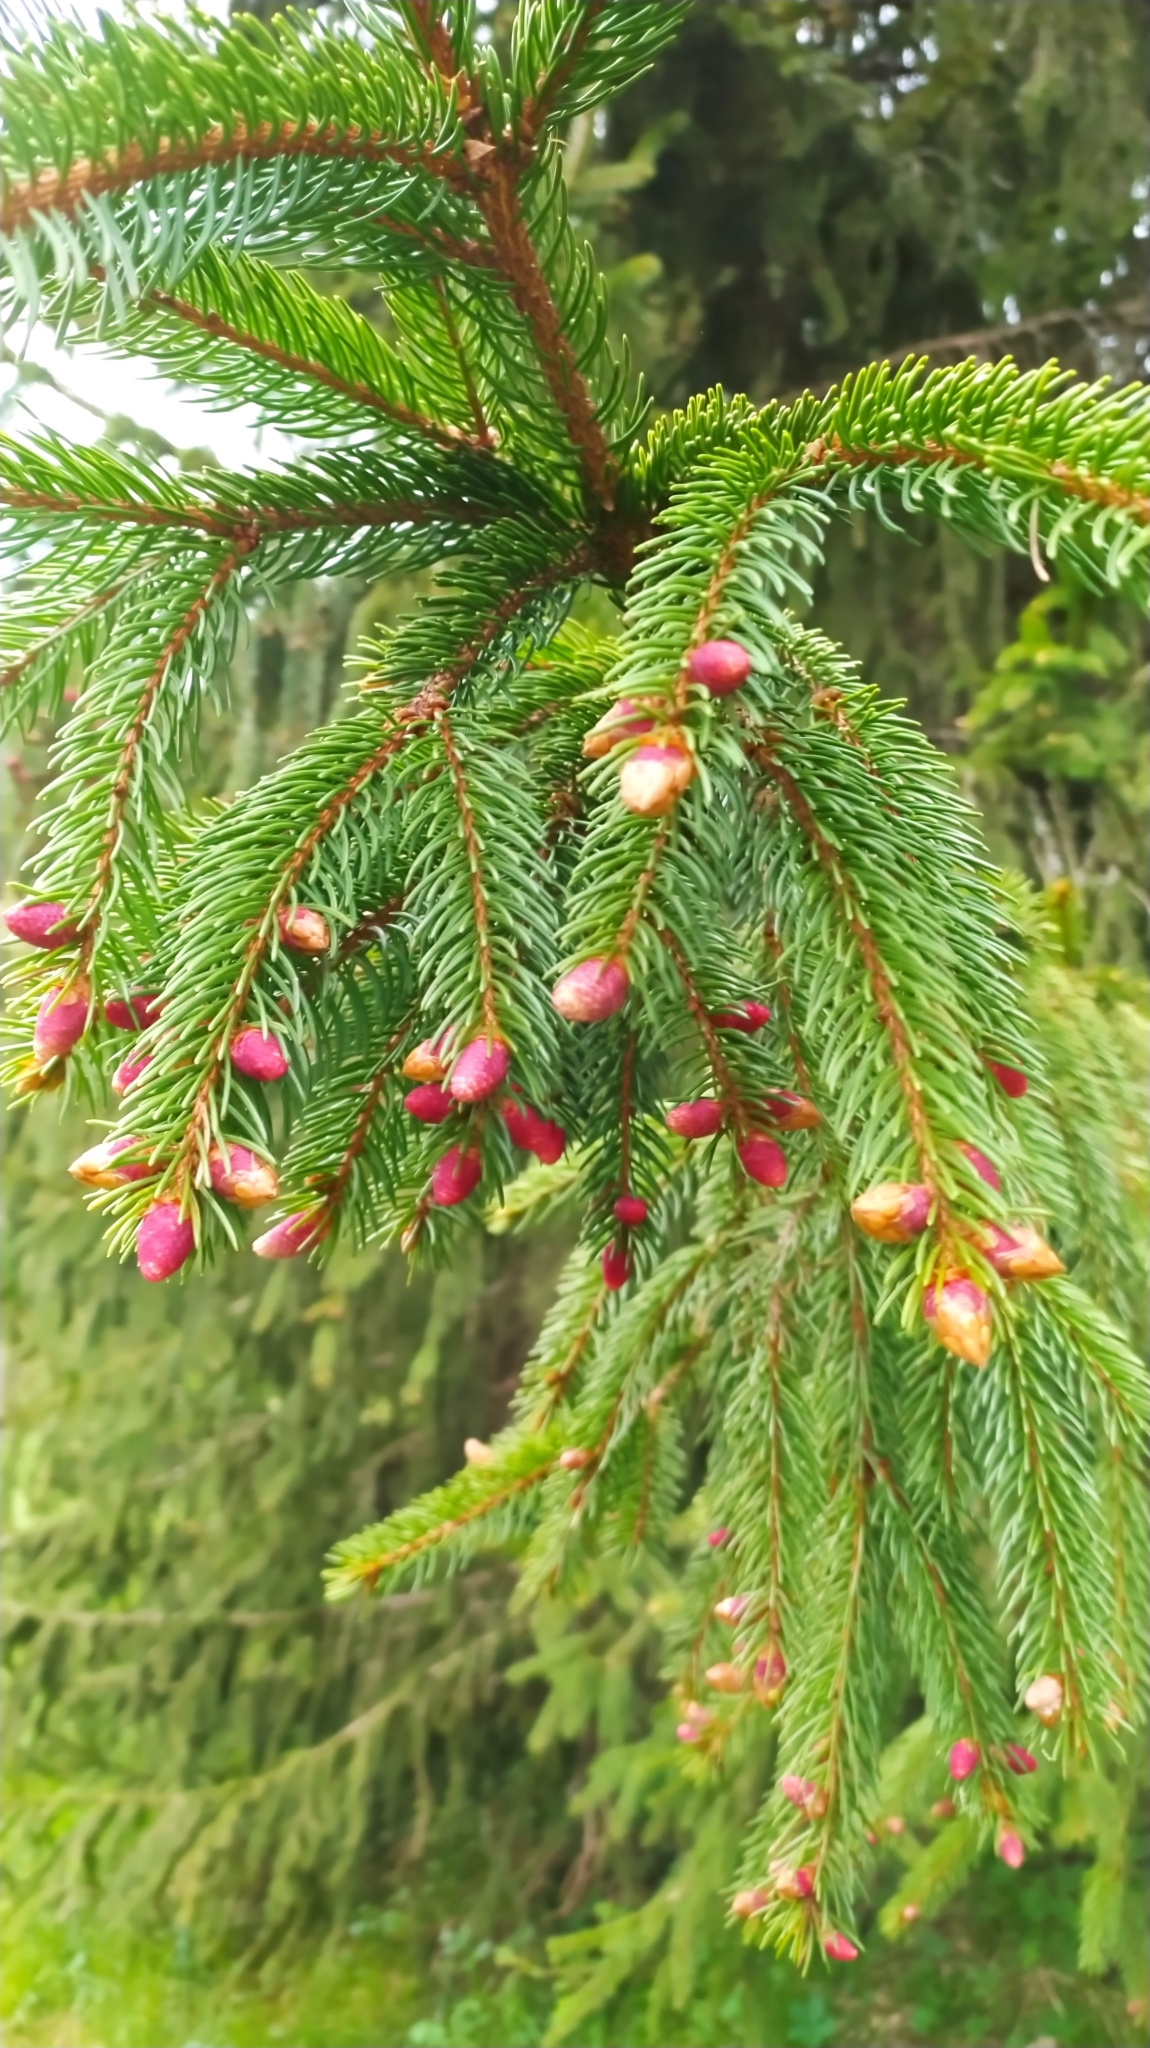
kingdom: Plantae
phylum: Tracheophyta
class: Pinopsida
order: Pinales
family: Pinaceae
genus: Picea
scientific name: Picea abies
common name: Norway spruce
